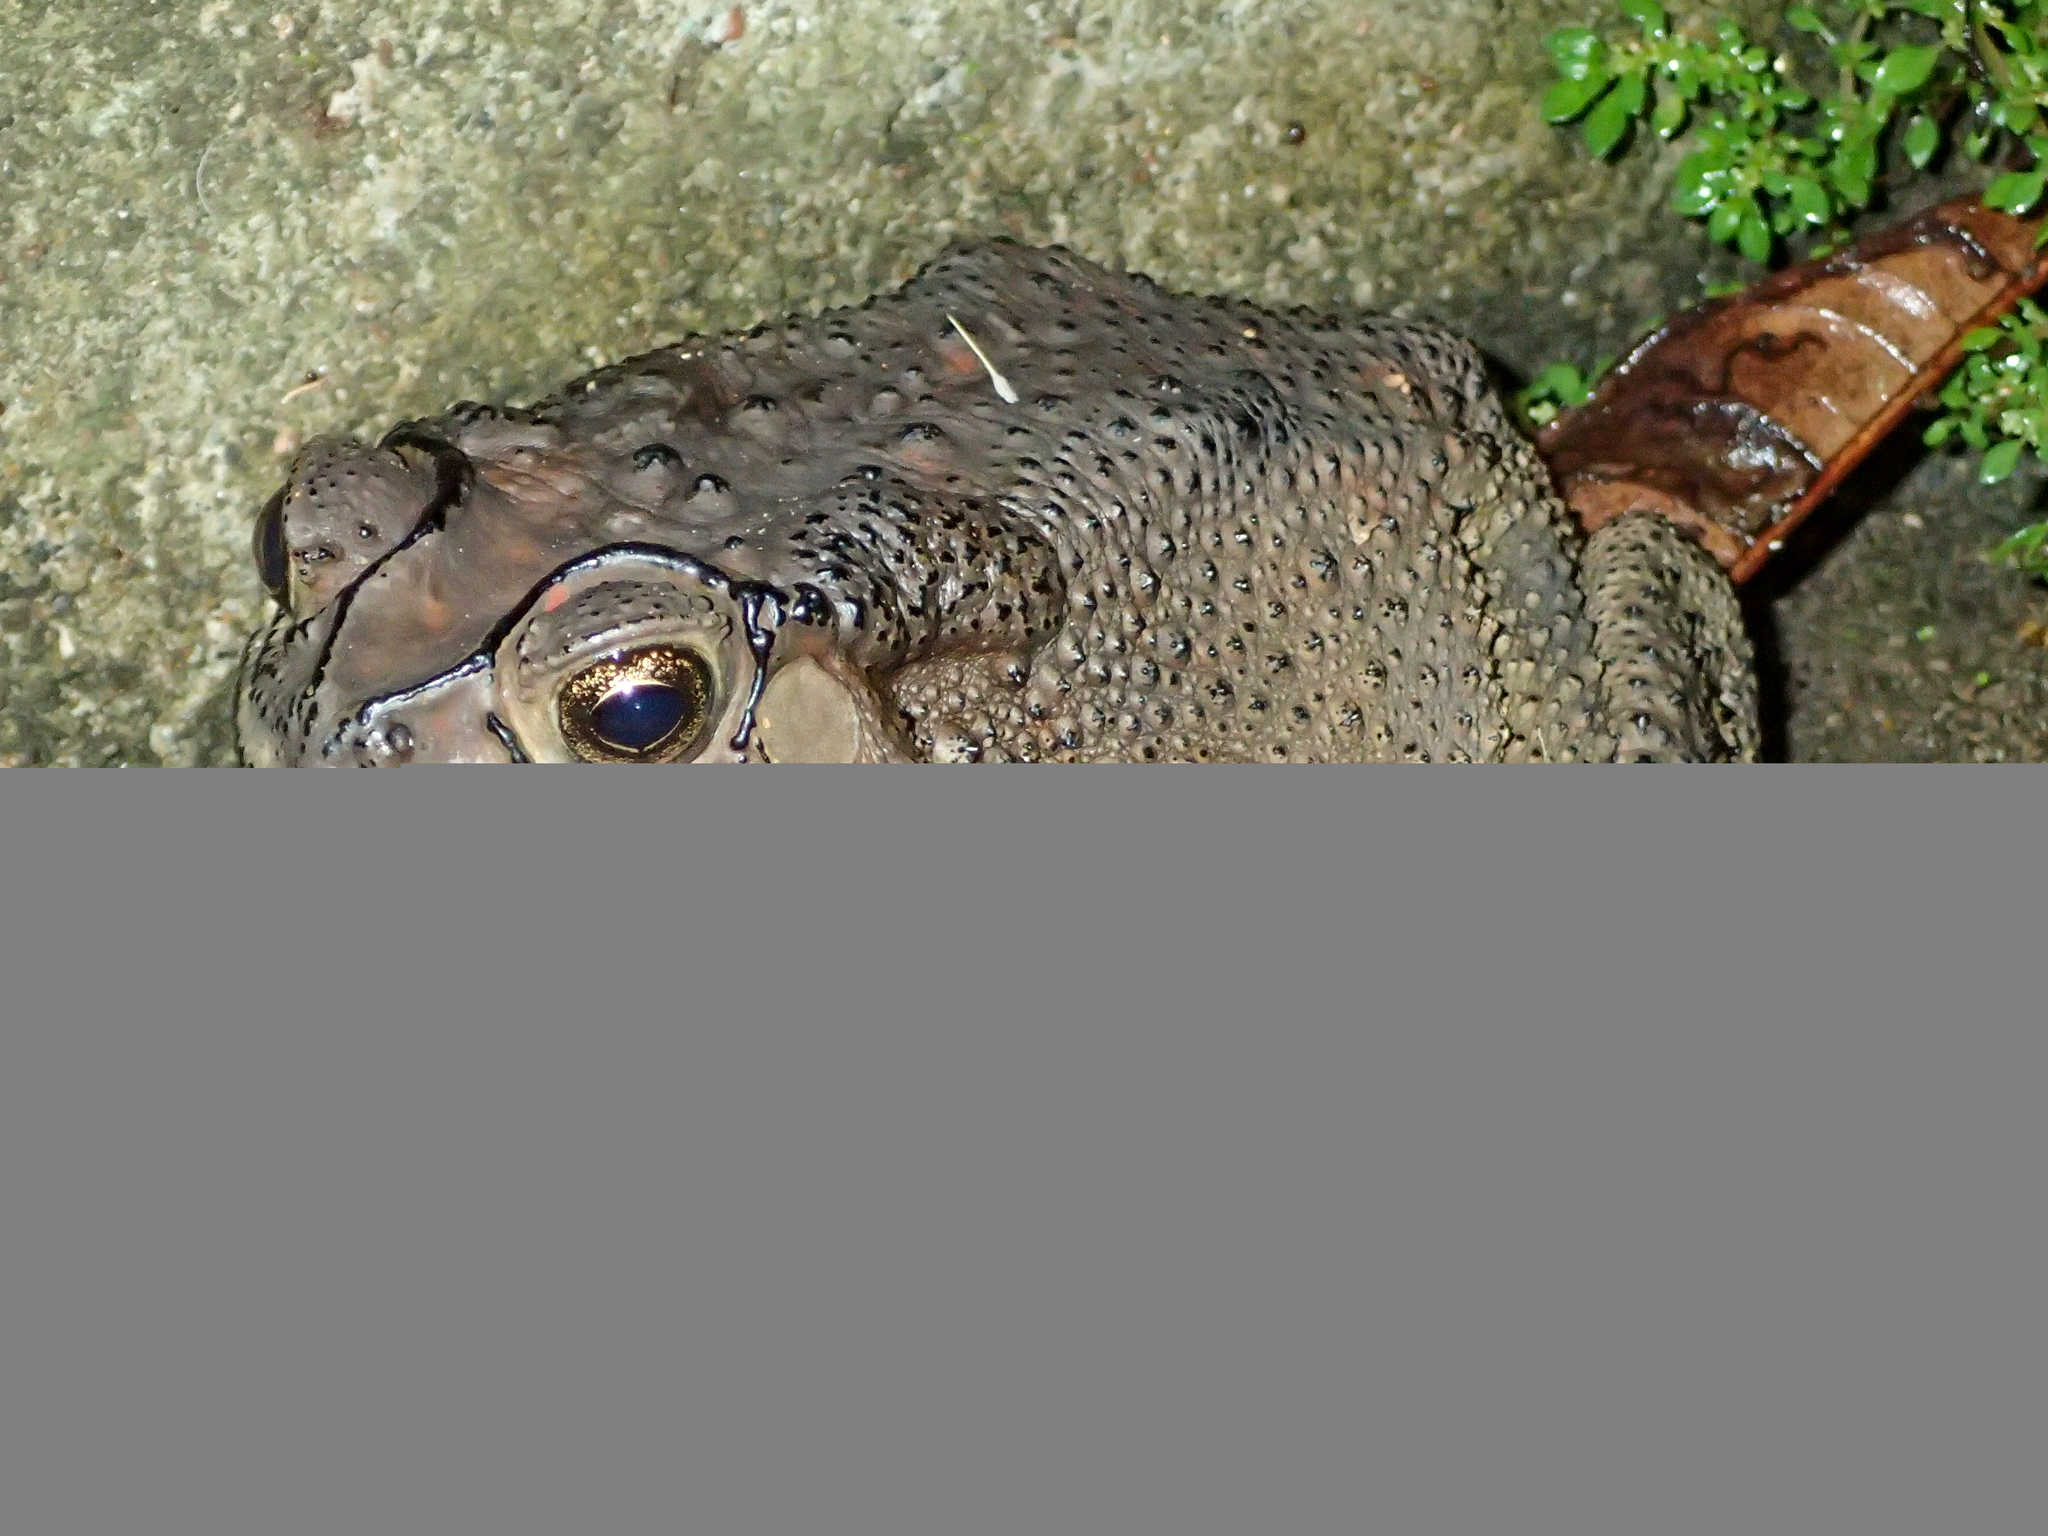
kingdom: Animalia
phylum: Chordata
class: Amphibia
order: Anura
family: Bufonidae
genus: Duttaphrynus
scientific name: Duttaphrynus melanostictus
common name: Common sunda toad
